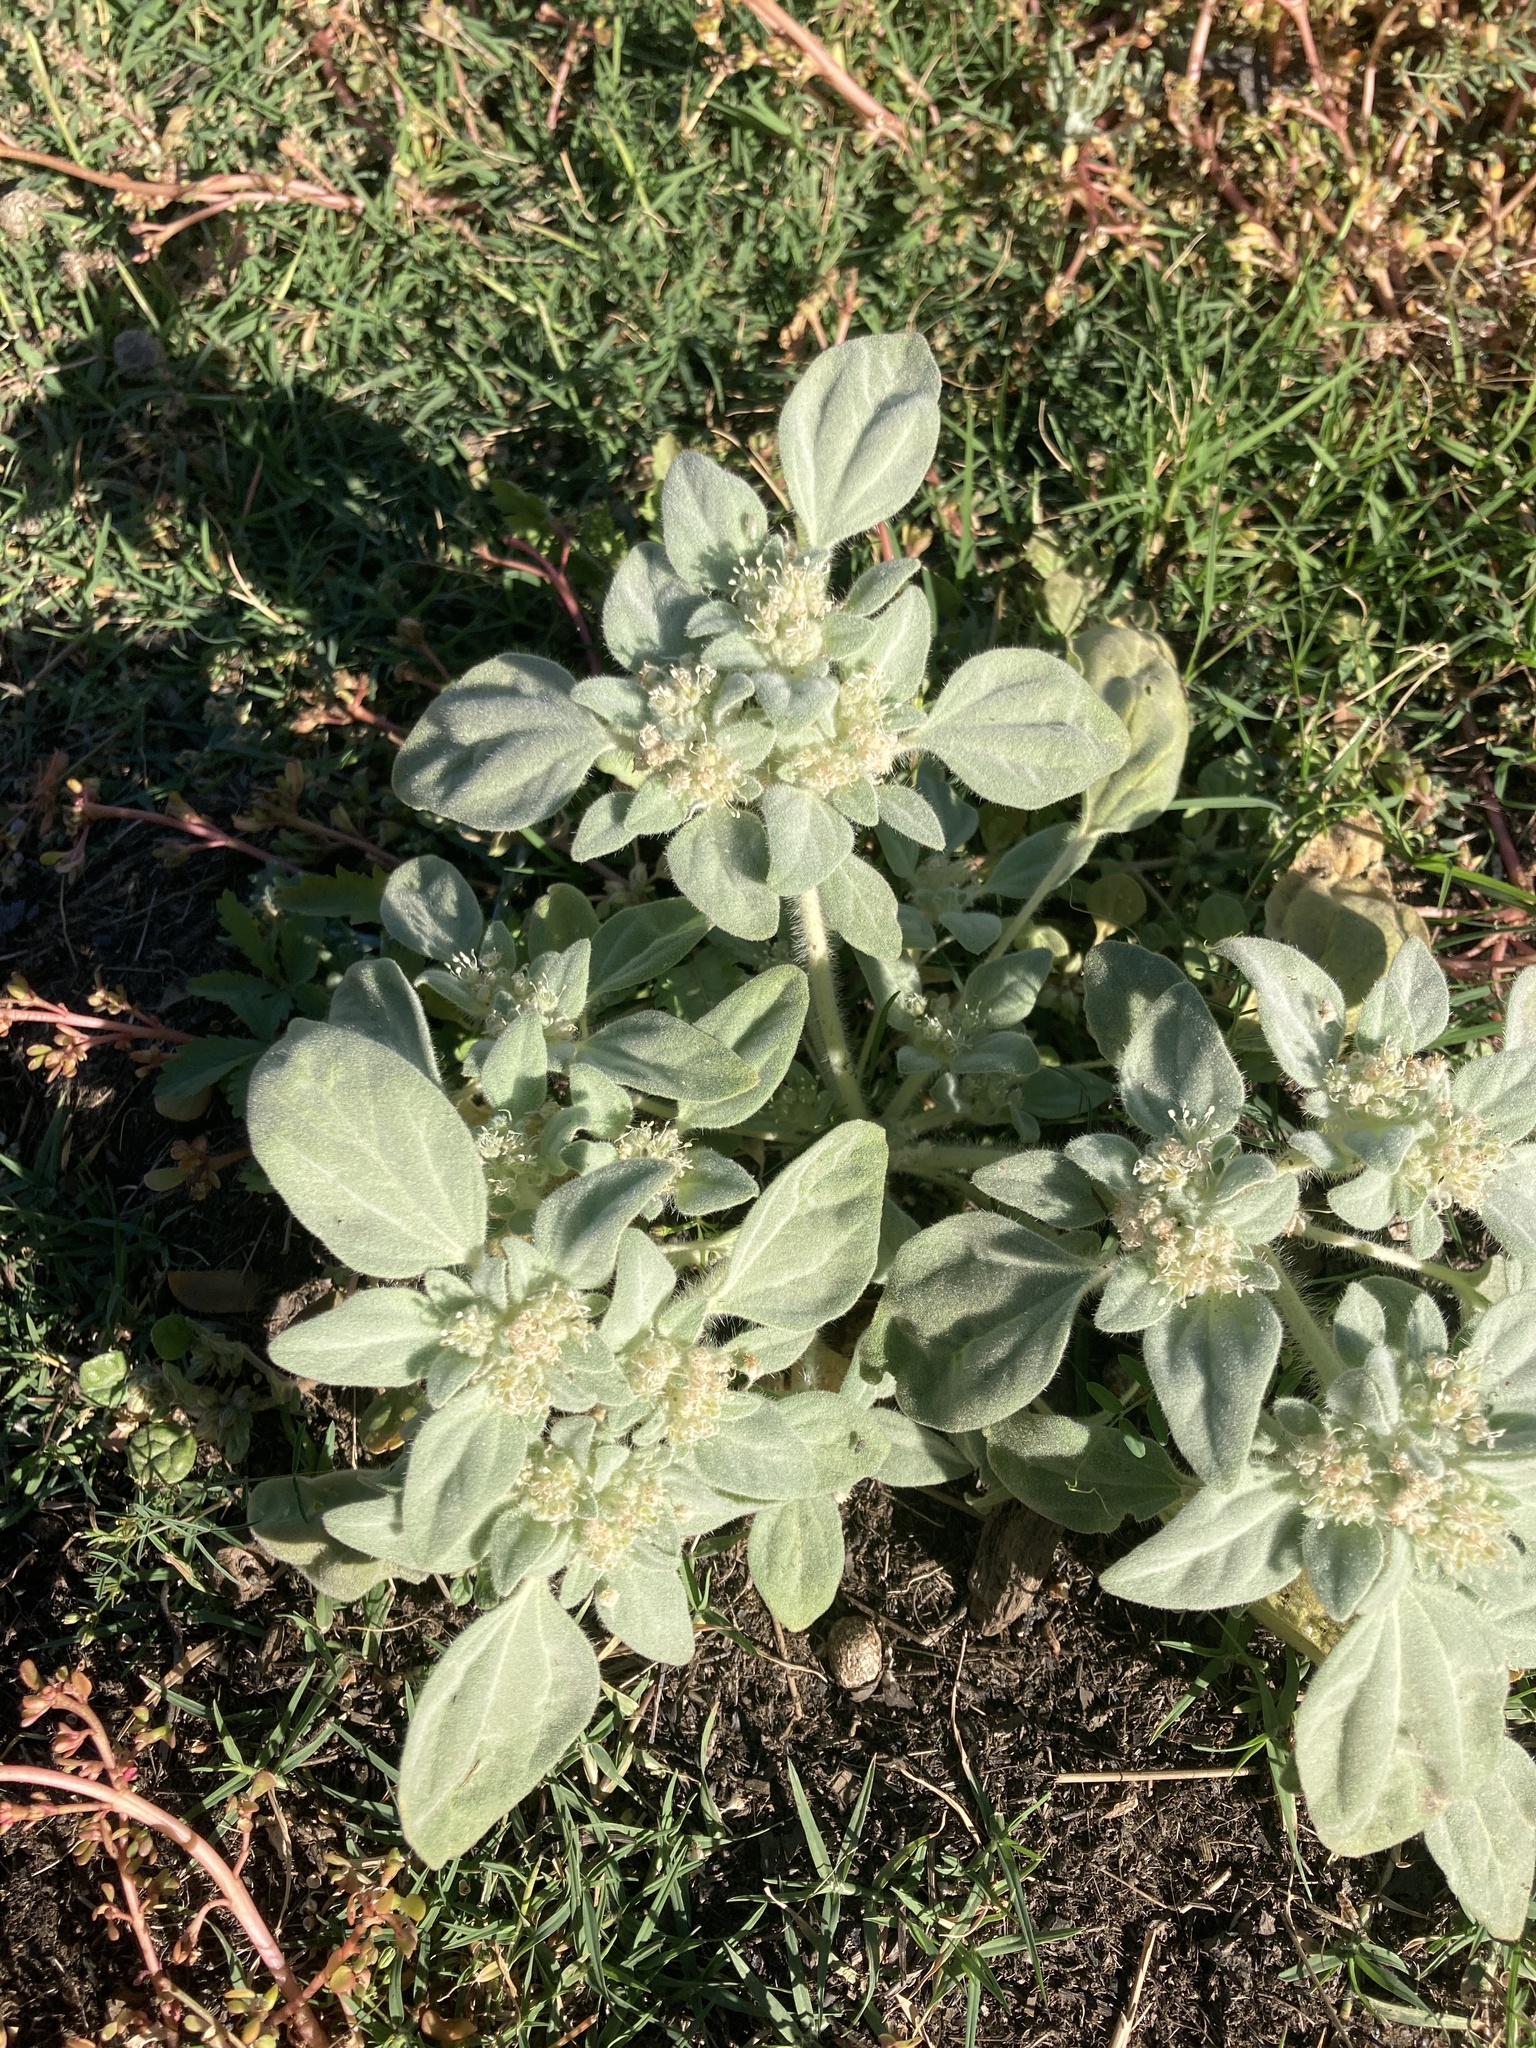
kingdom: Plantae
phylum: Tracheophyta
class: Magnoliopsida
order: Malpighiales
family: Euphorbiaceae
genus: Croton
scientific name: Croton setiger
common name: Dove weed
